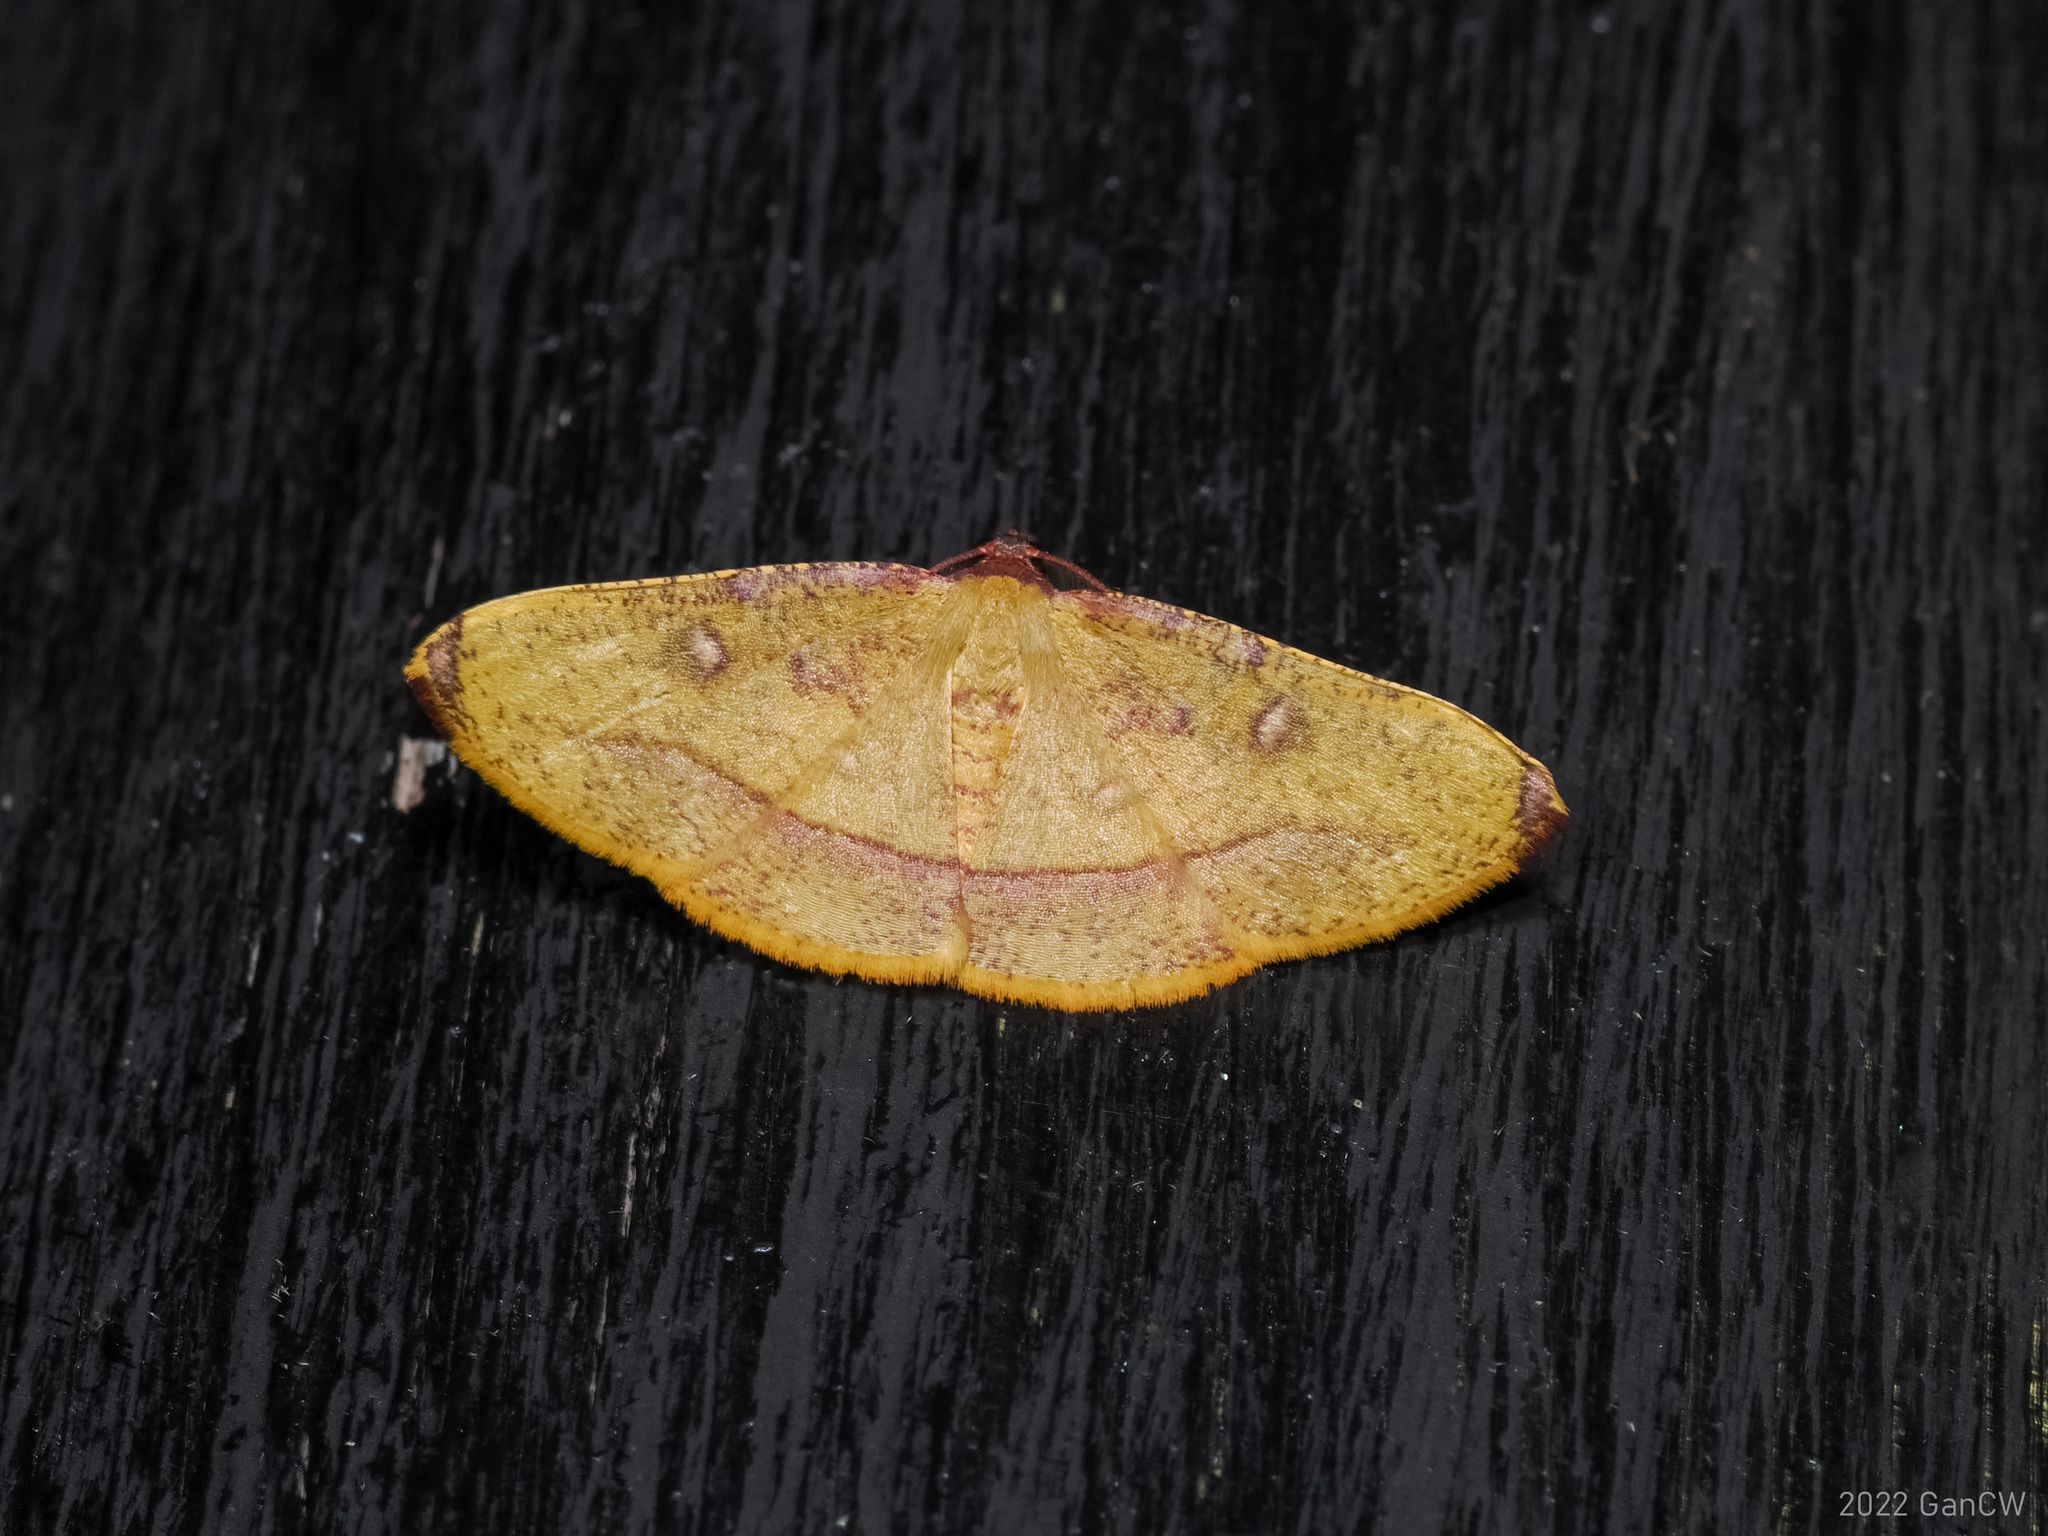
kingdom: Animalia
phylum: Arthropoda
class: Insecta
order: Lepidoptera
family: Geometridae
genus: Heterolocha
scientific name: Heterolocha pyreniata
